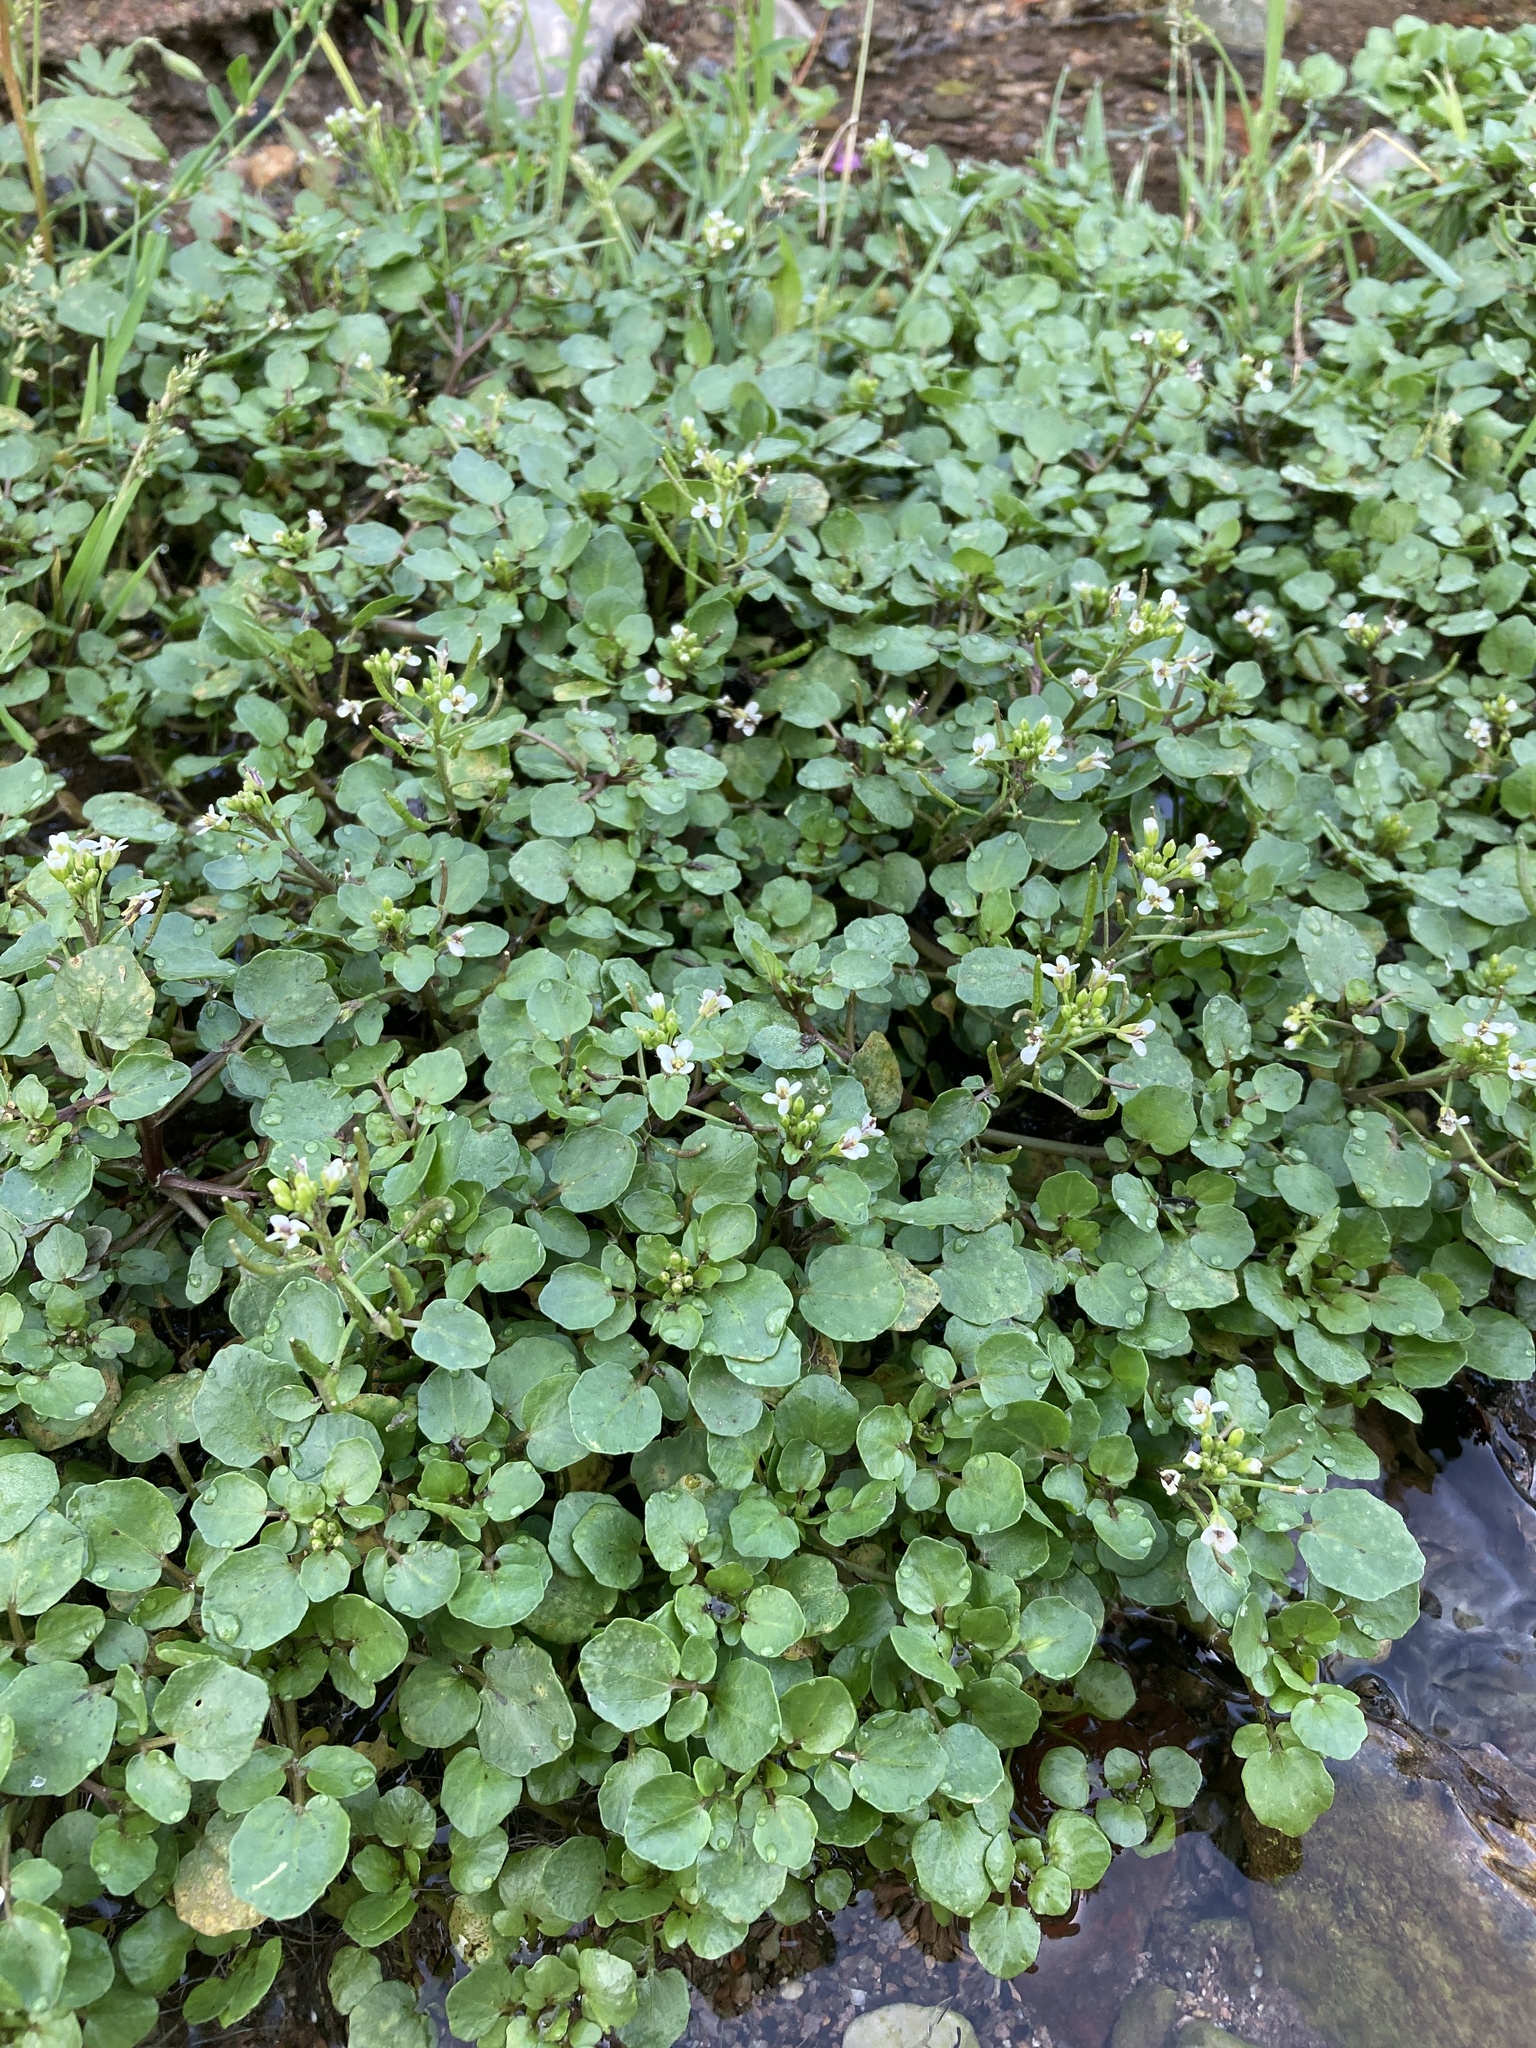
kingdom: Plantae
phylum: Tracheophyta
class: Magnoliopsida
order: Brassicales
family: Brassicaceae
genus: Nasturtium
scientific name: Nasturtium officinale
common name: Watercress
